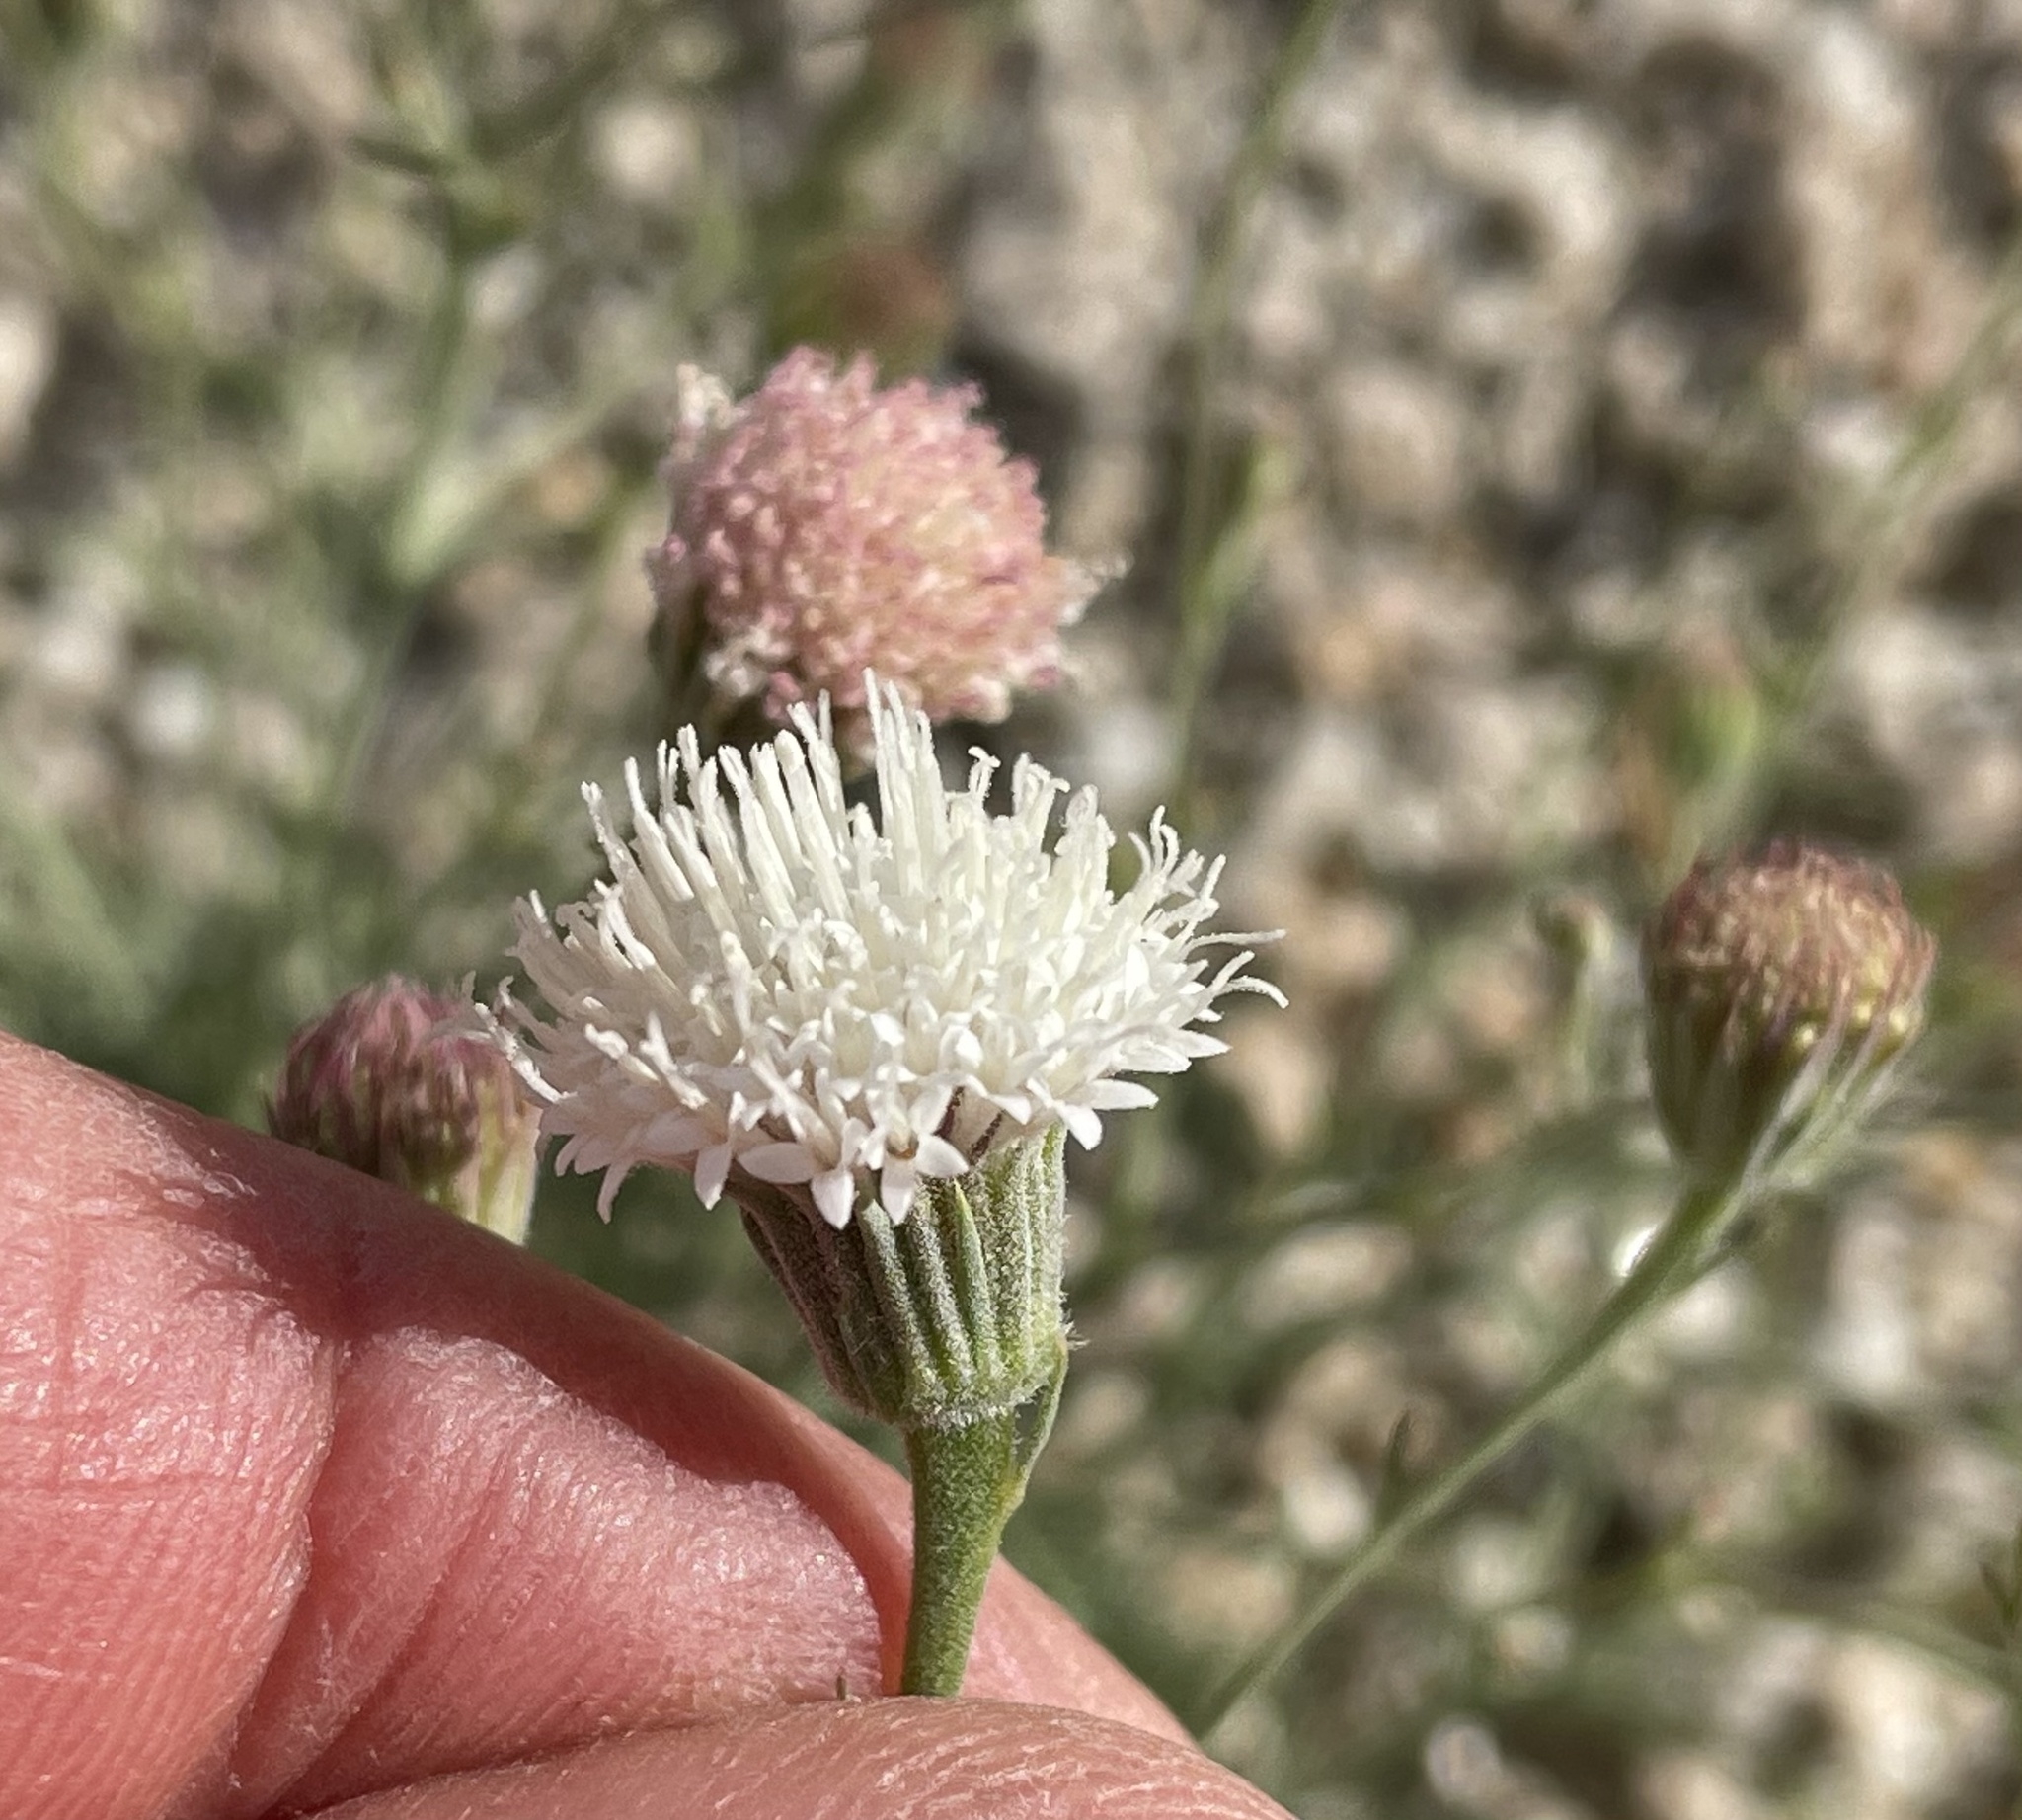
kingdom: Plantae
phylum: Tracheophyta
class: Magnoliopsida
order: Asterales
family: Asteraceae
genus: Chaenactis
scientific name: Chaenactis carphoclinia
